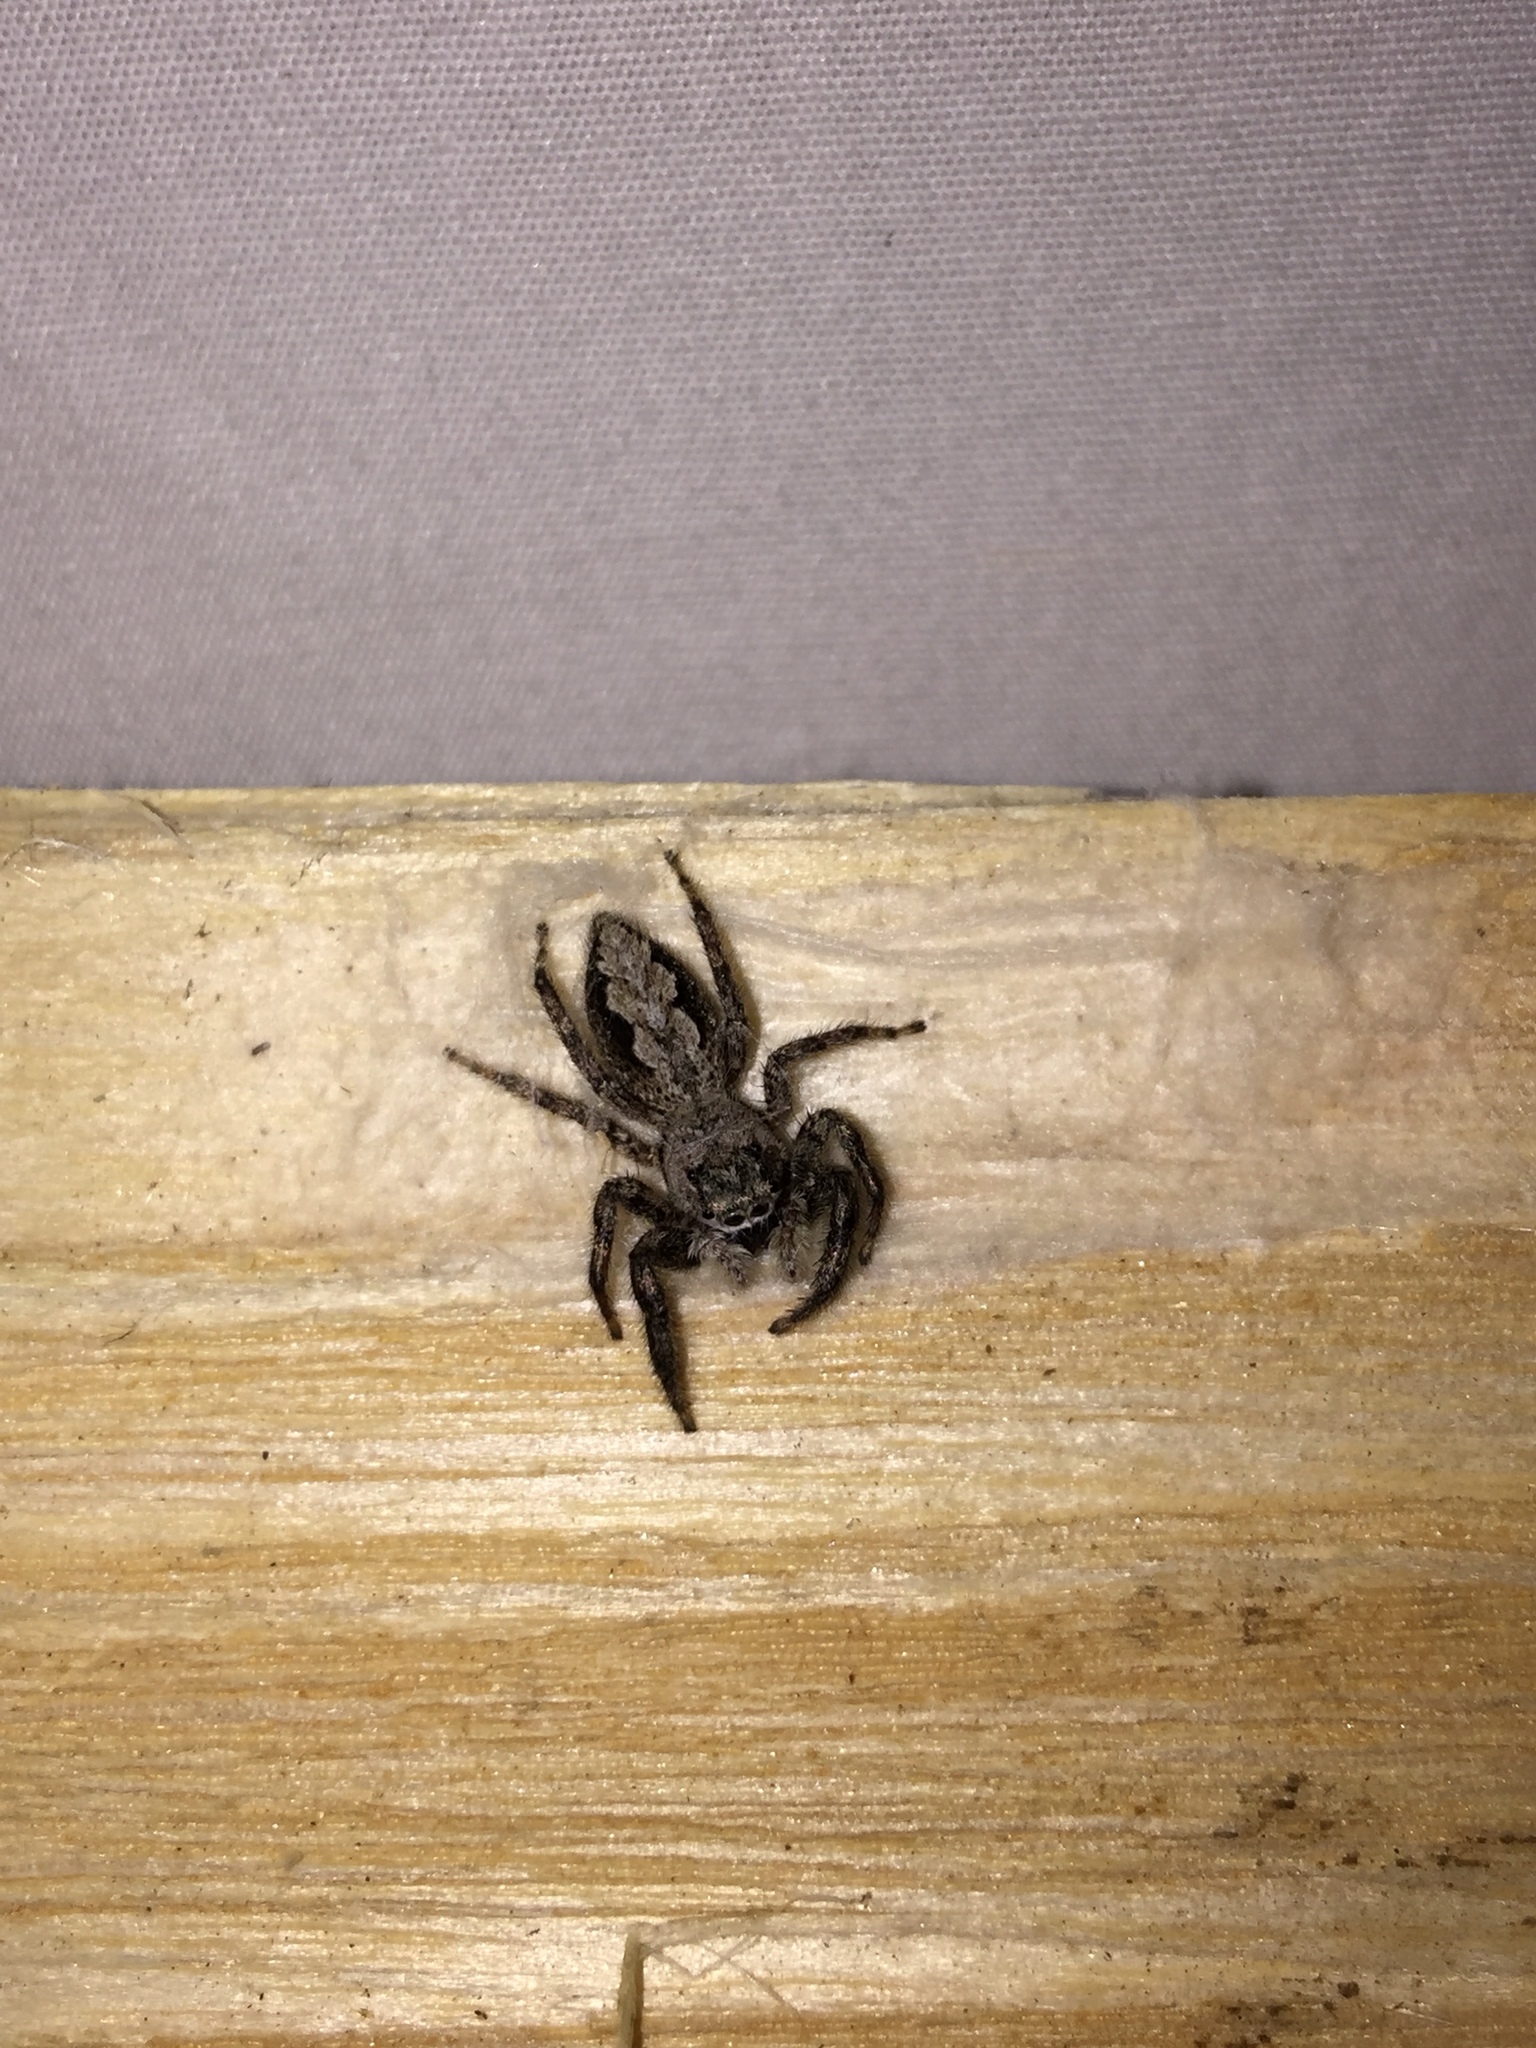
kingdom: Animalia
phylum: Arthropoda
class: Arachnida
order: Araneae
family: Salticidae
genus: Platycryptus
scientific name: Platycryptus undatus
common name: Tan jumping spider
